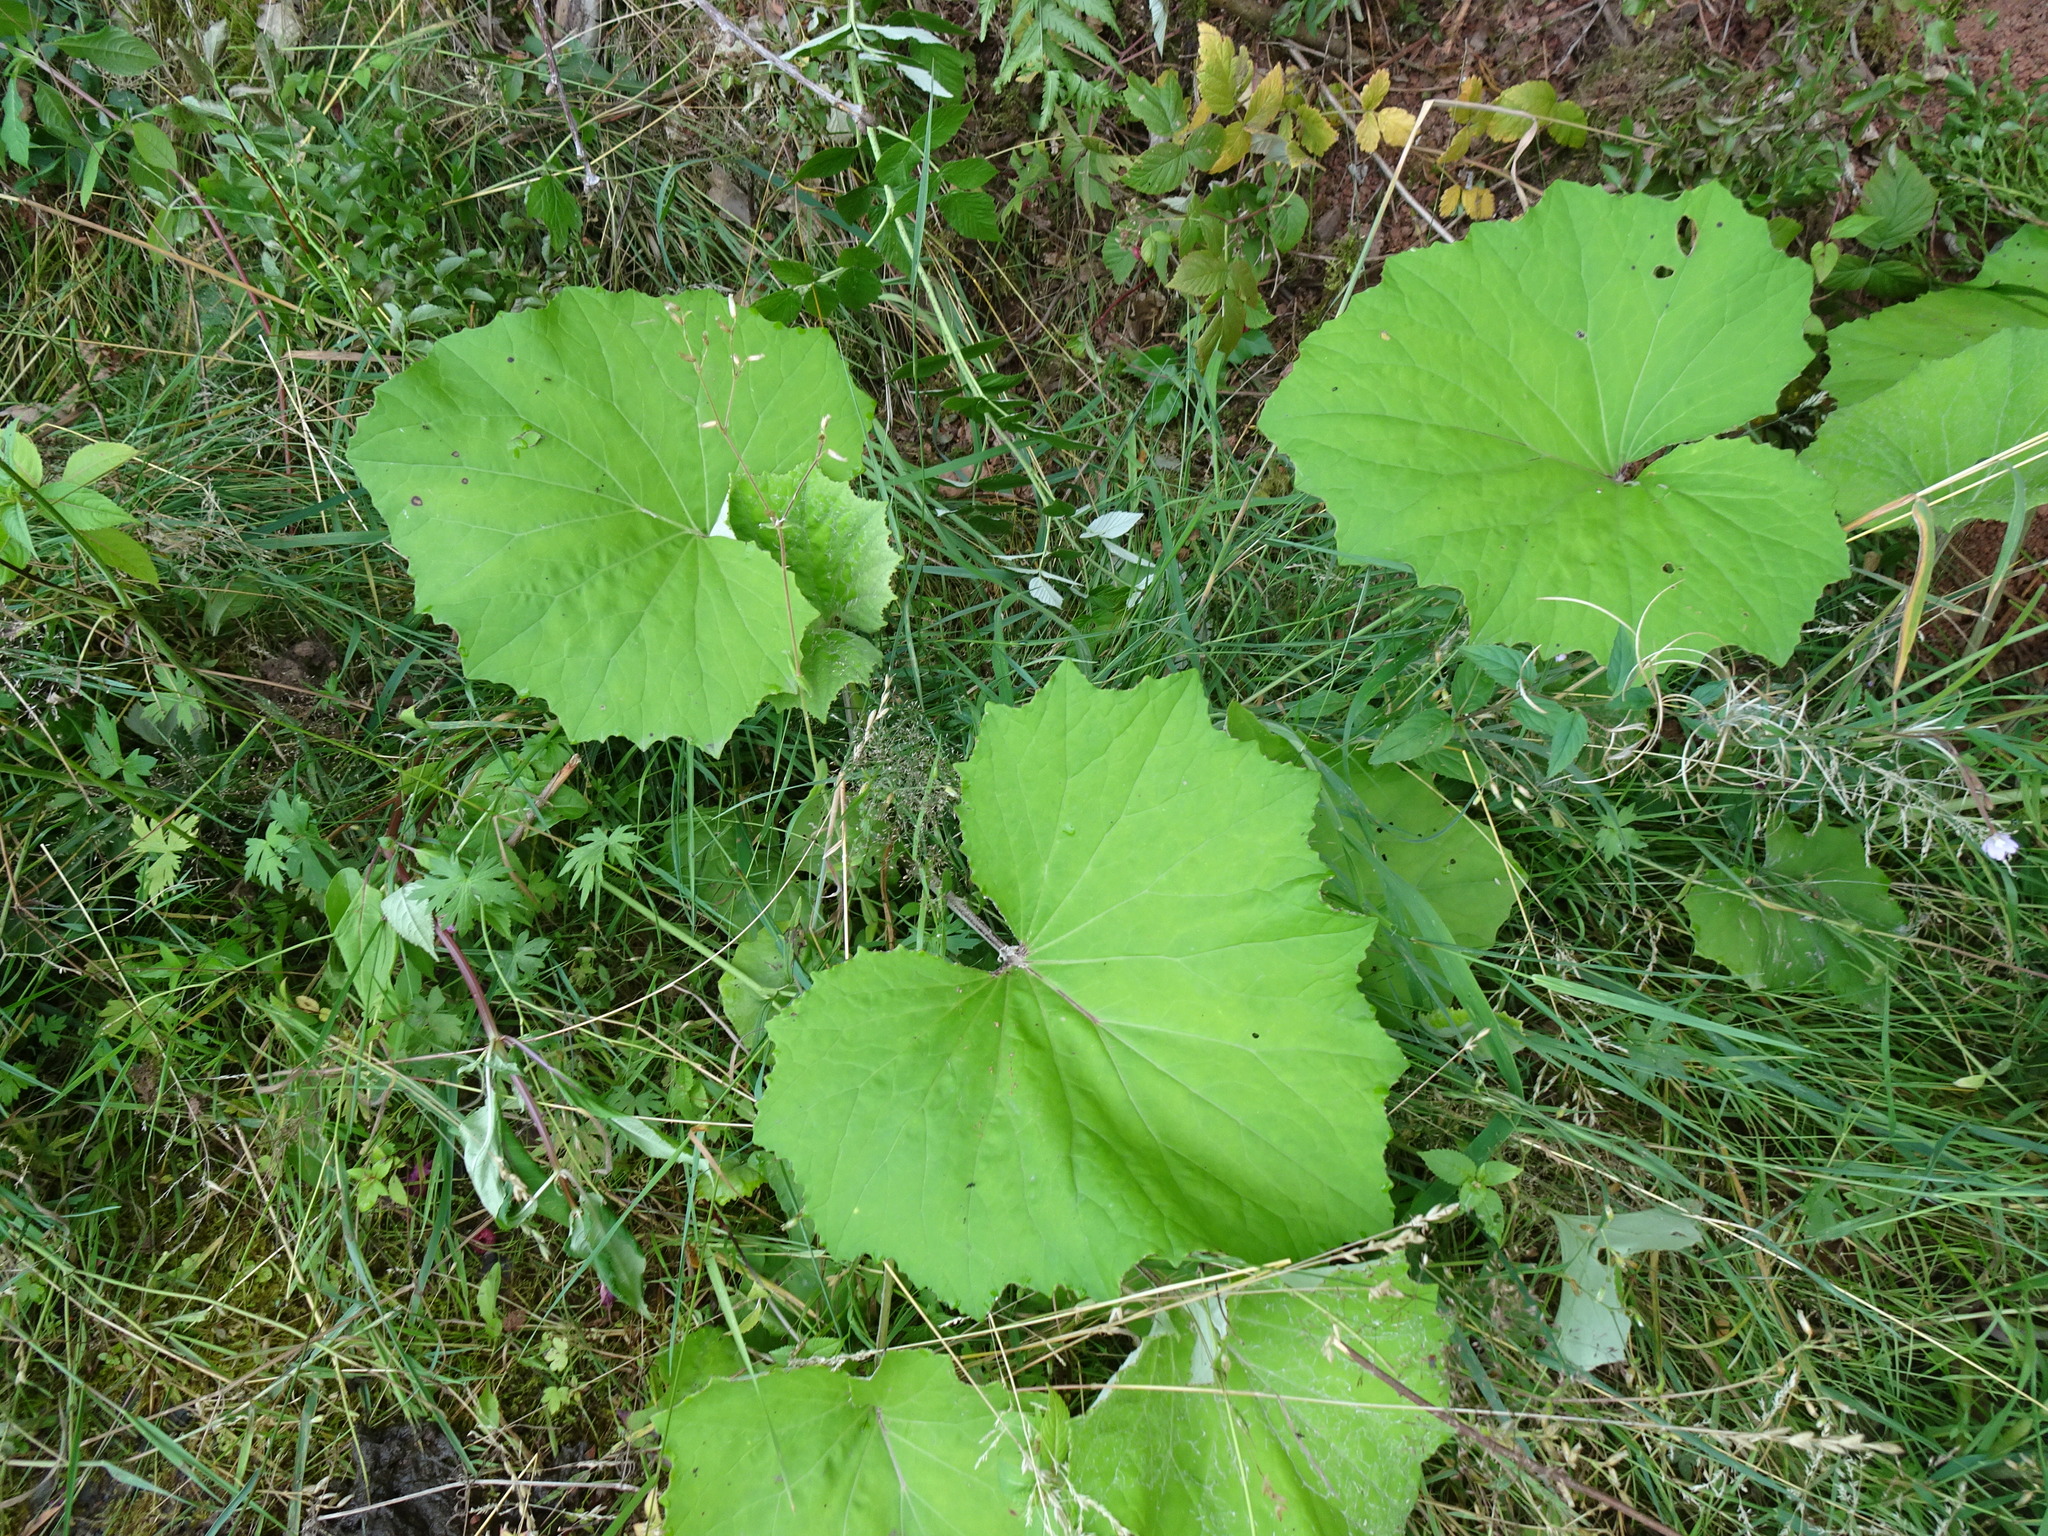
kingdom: Plantae
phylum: Tracheophyta
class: Magnoliopsida
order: Asterales
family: Asteraceae
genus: Tussilago
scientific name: Tussilago farfara
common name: Coltsfoot
